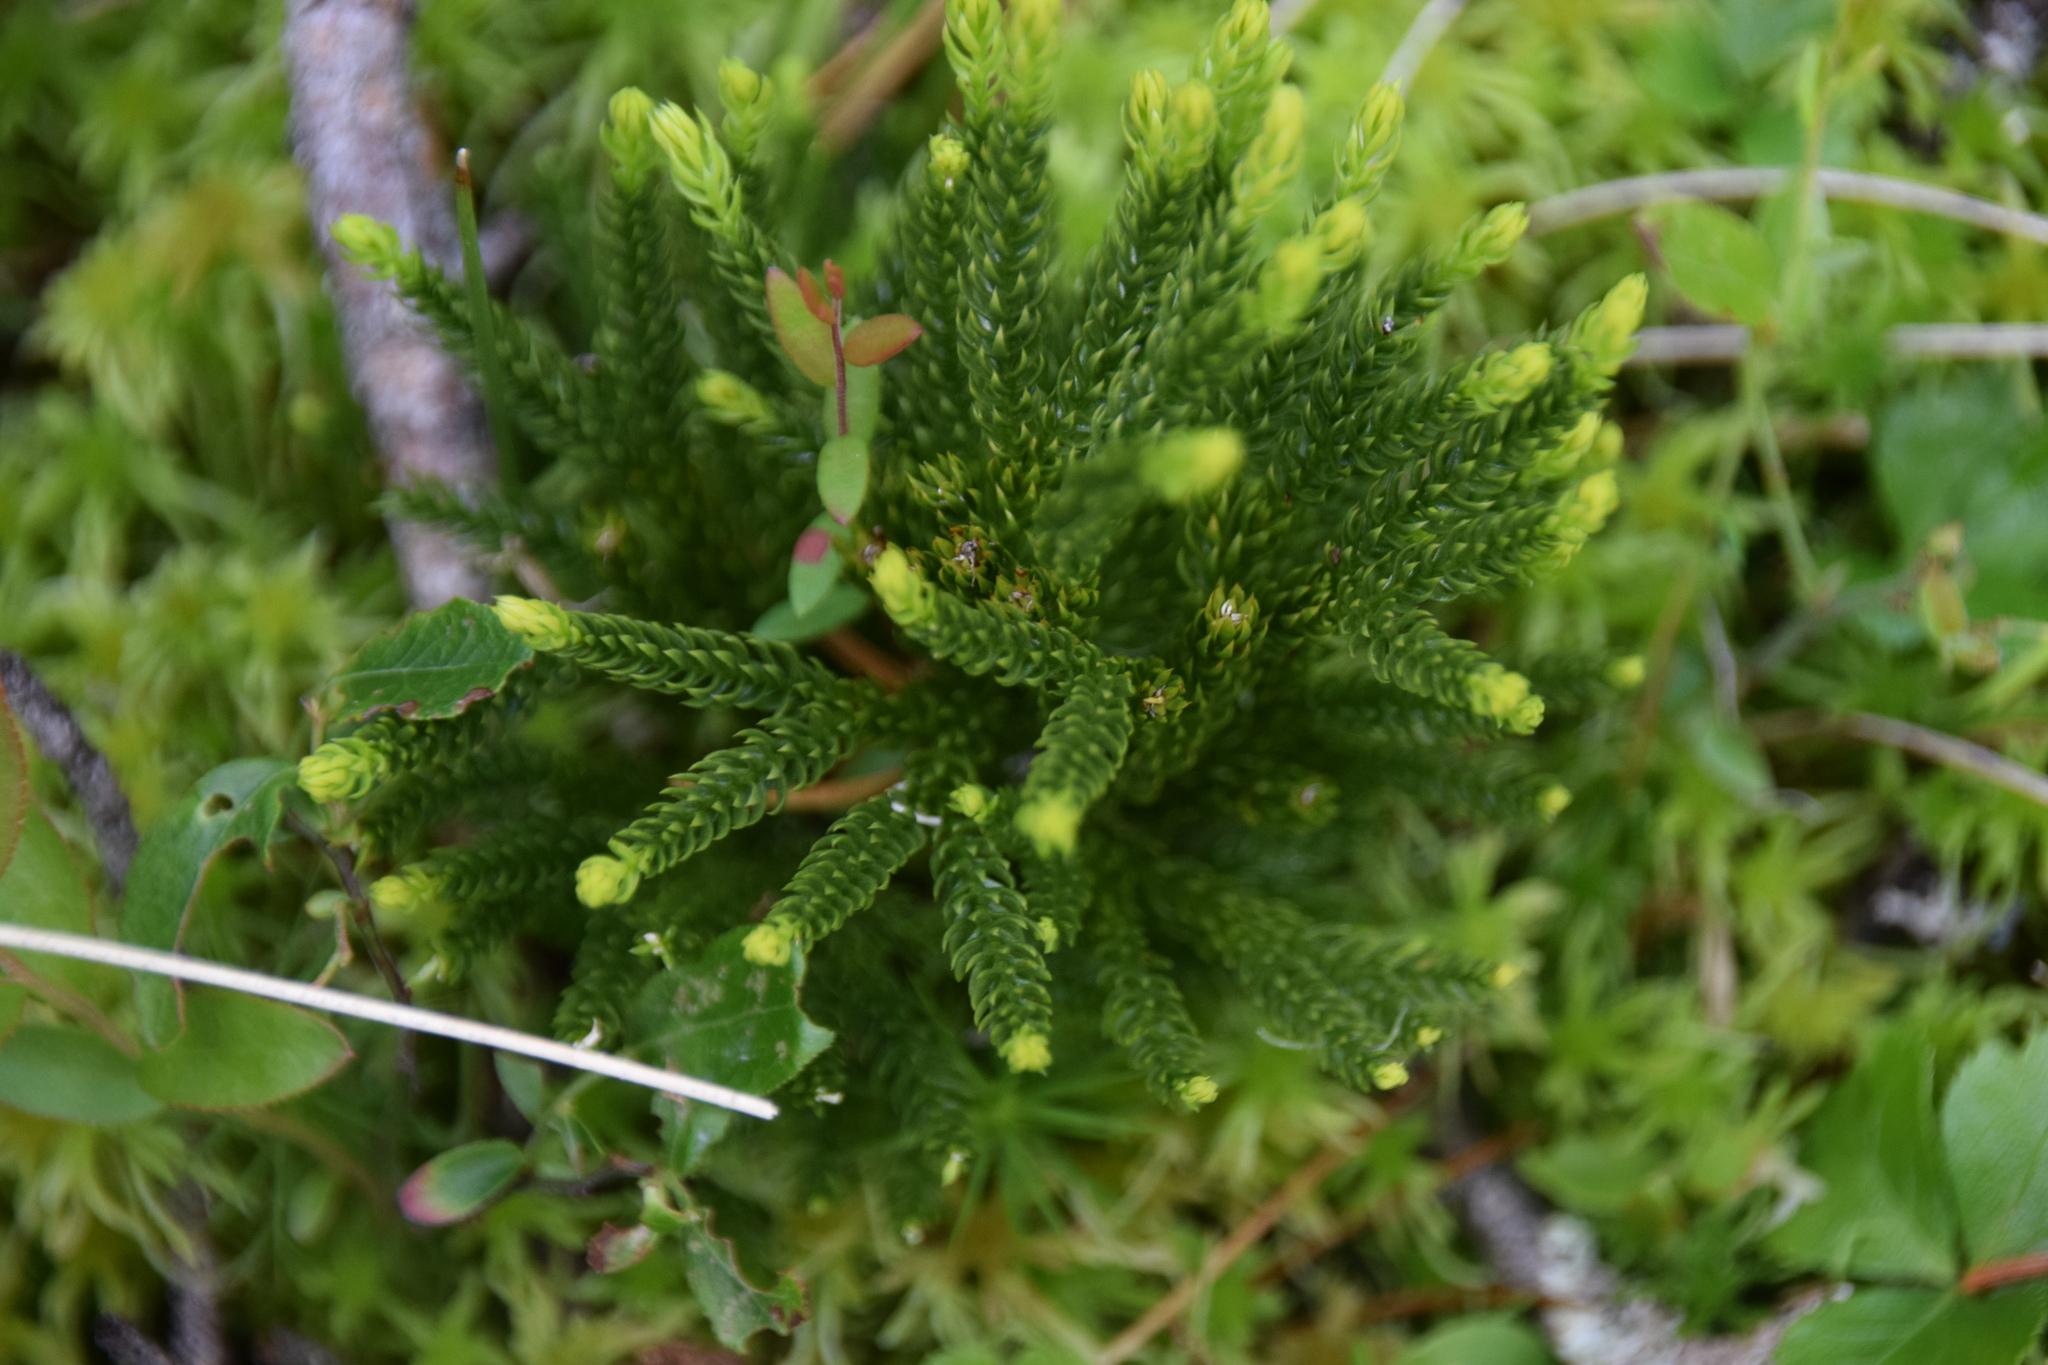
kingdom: Plantae
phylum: Tracheophyta
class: Lycopodiopsida
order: Lycopodiales
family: Lycopodiaceae
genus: Dendrolycopodium
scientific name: Dendrolycopodium hickeyi
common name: Hickey's clubmoss
